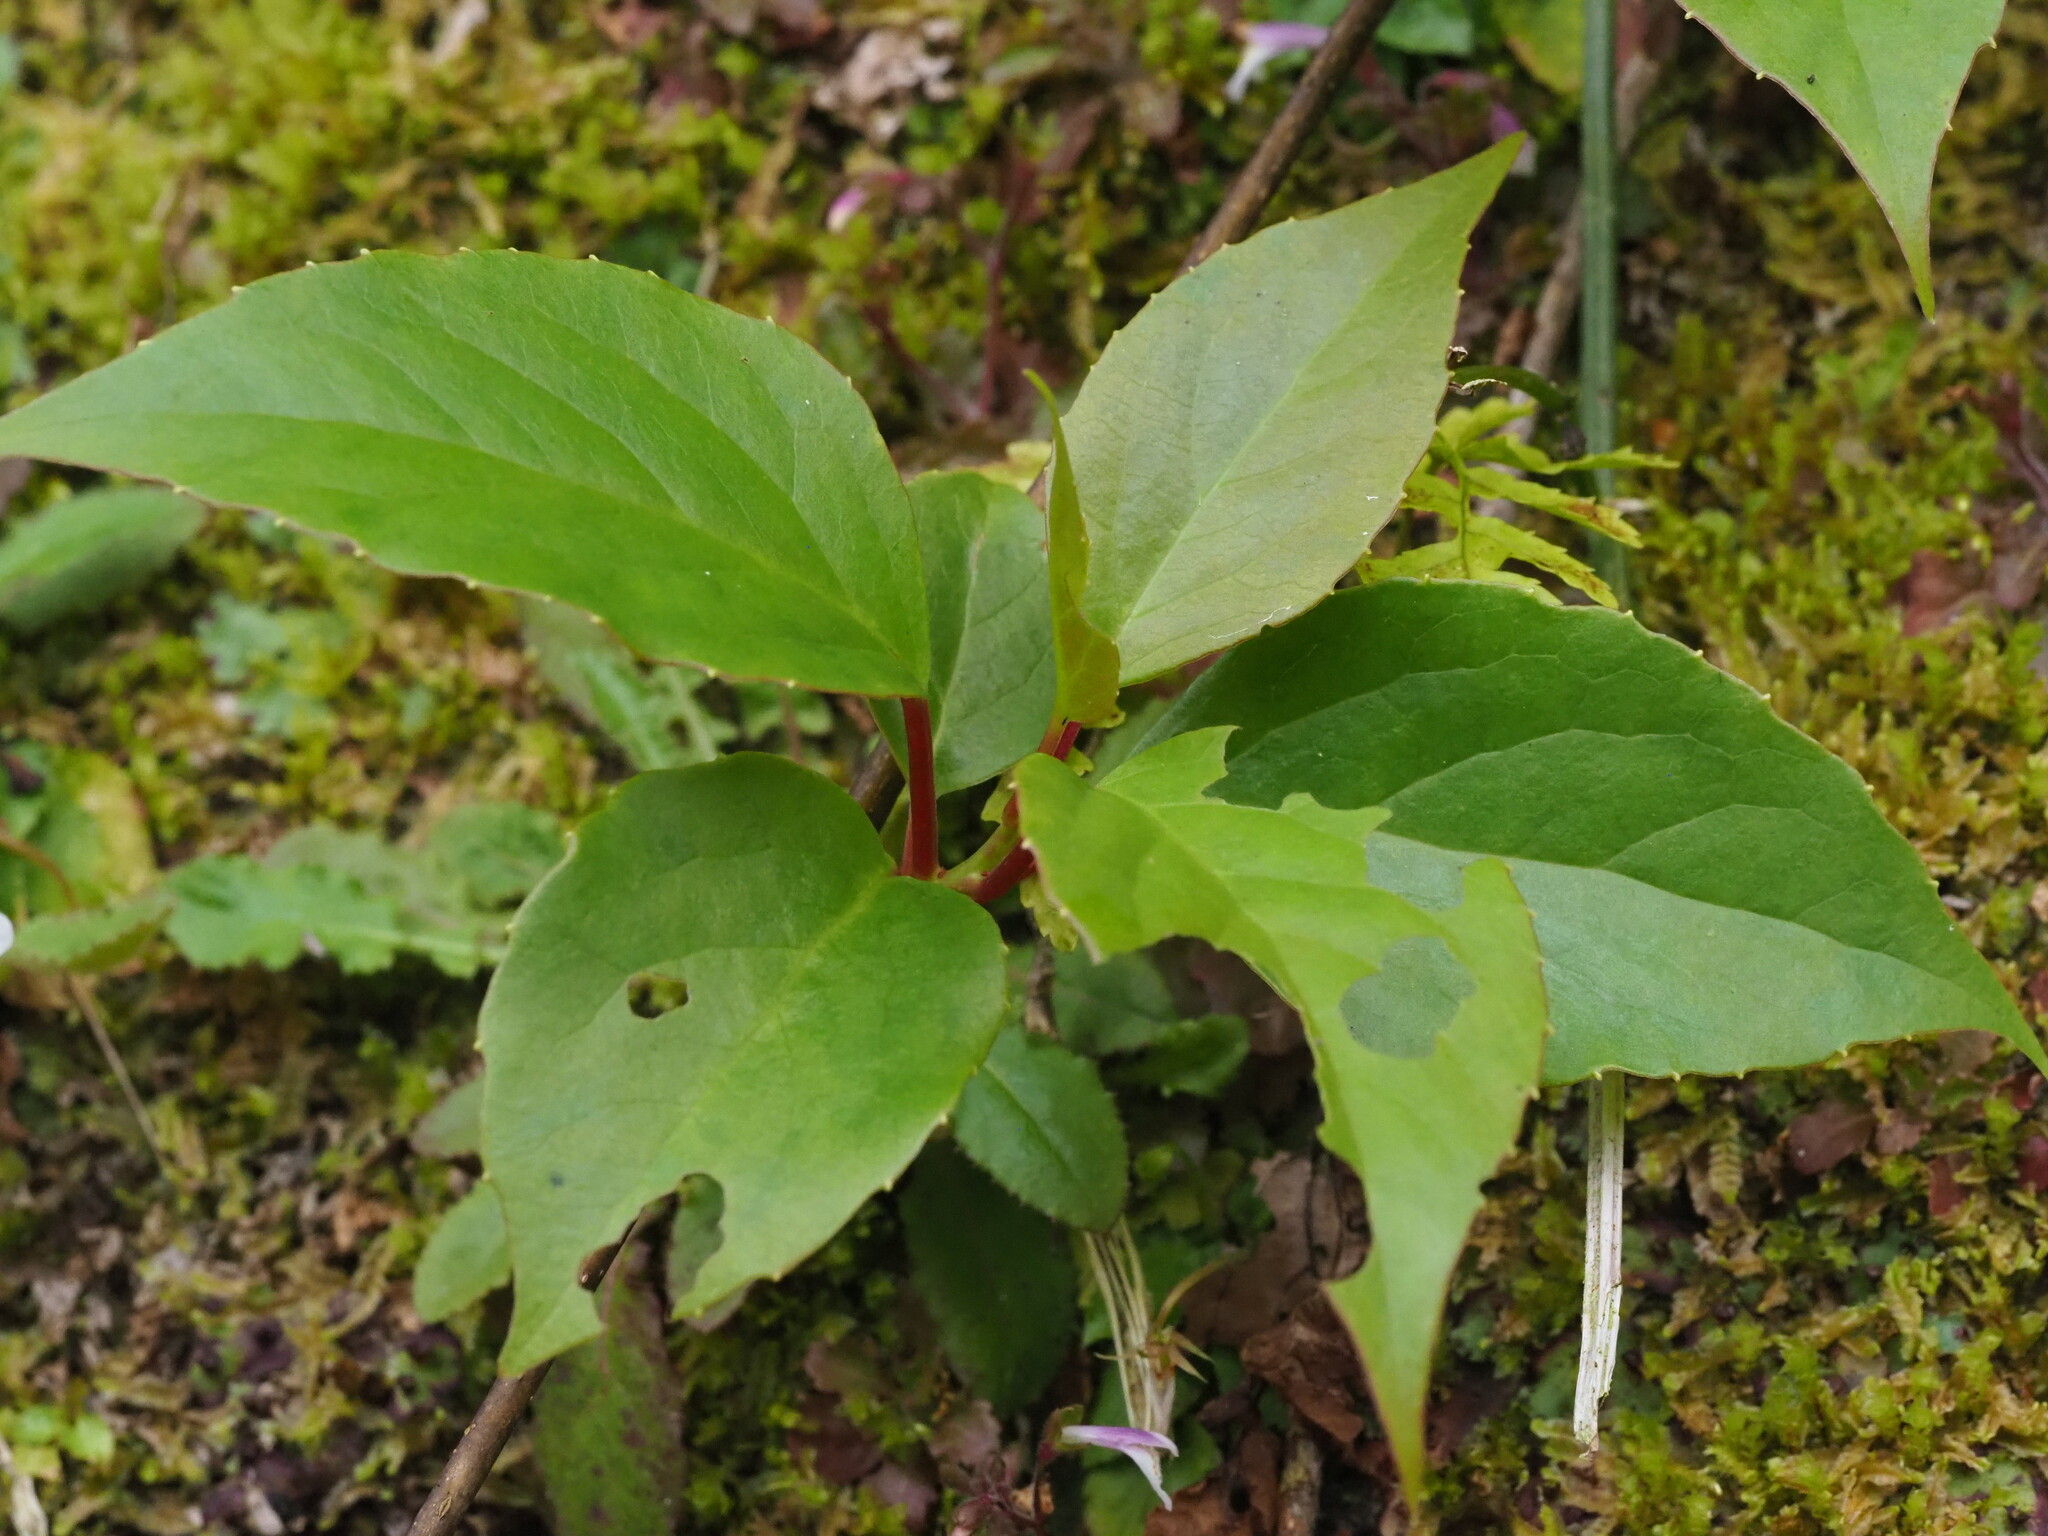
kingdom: Plantae
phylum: Tracheophyta
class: Magnoliopsida
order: Austrobaileyales
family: Schisandraceae
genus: Schisandra
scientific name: Schisandra arisanensis
